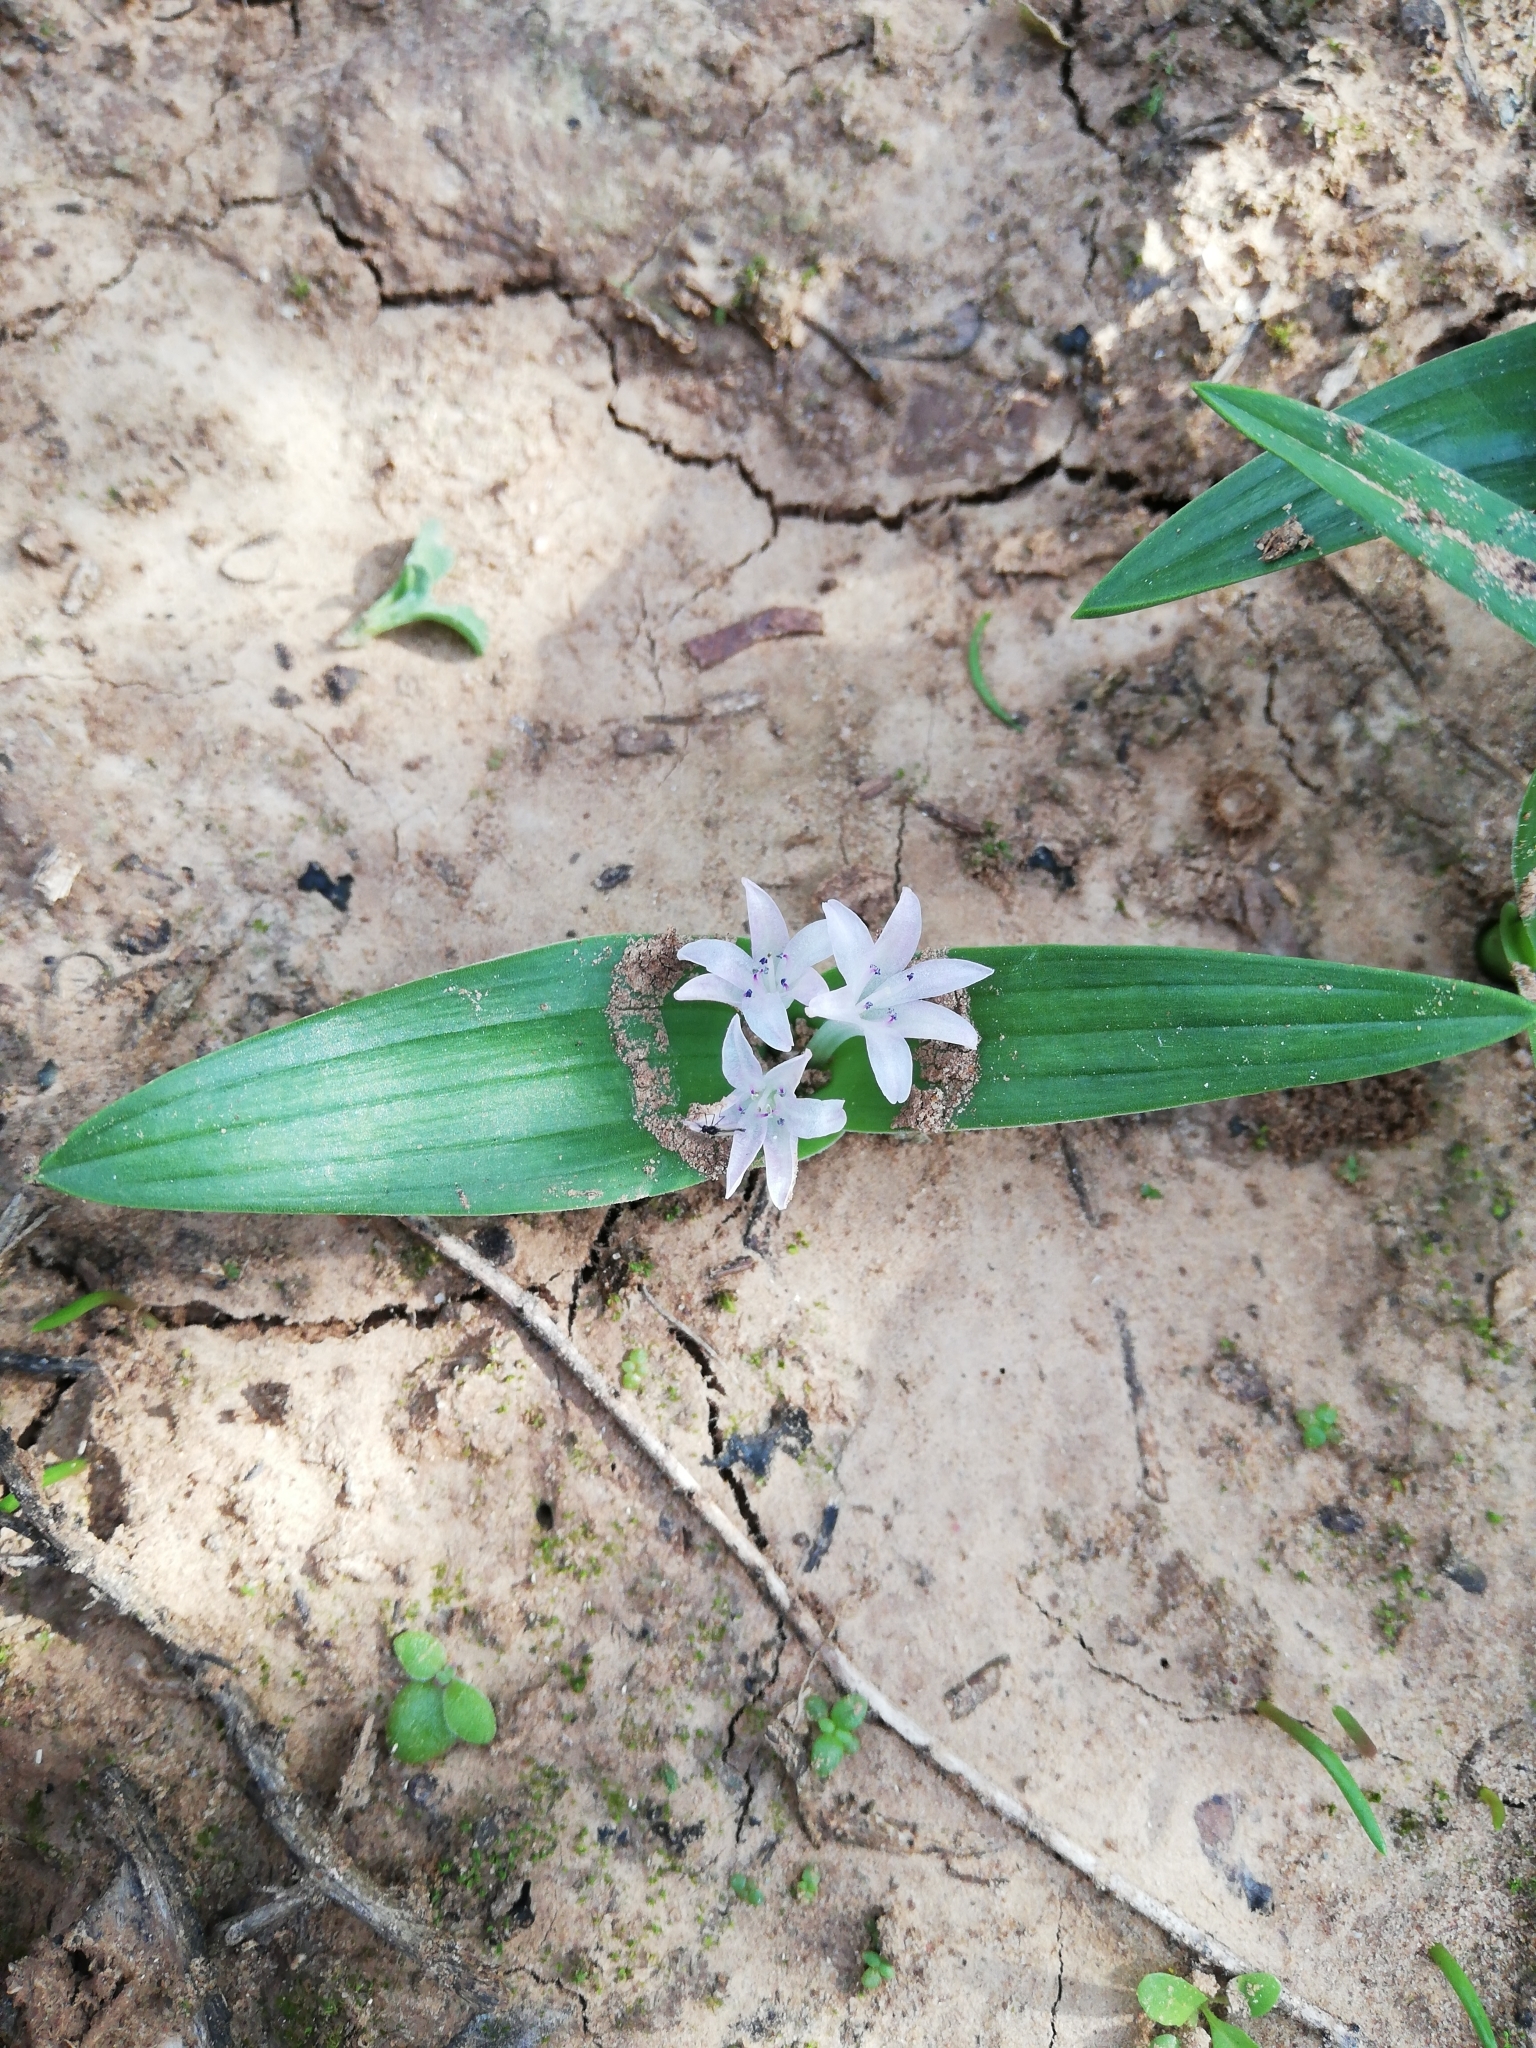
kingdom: Plantae
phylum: Tracheophyta
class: Liliopsida
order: Asparagales
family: Asparagaceae
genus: Lachenalia
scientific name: Lachenalia ensifolia
